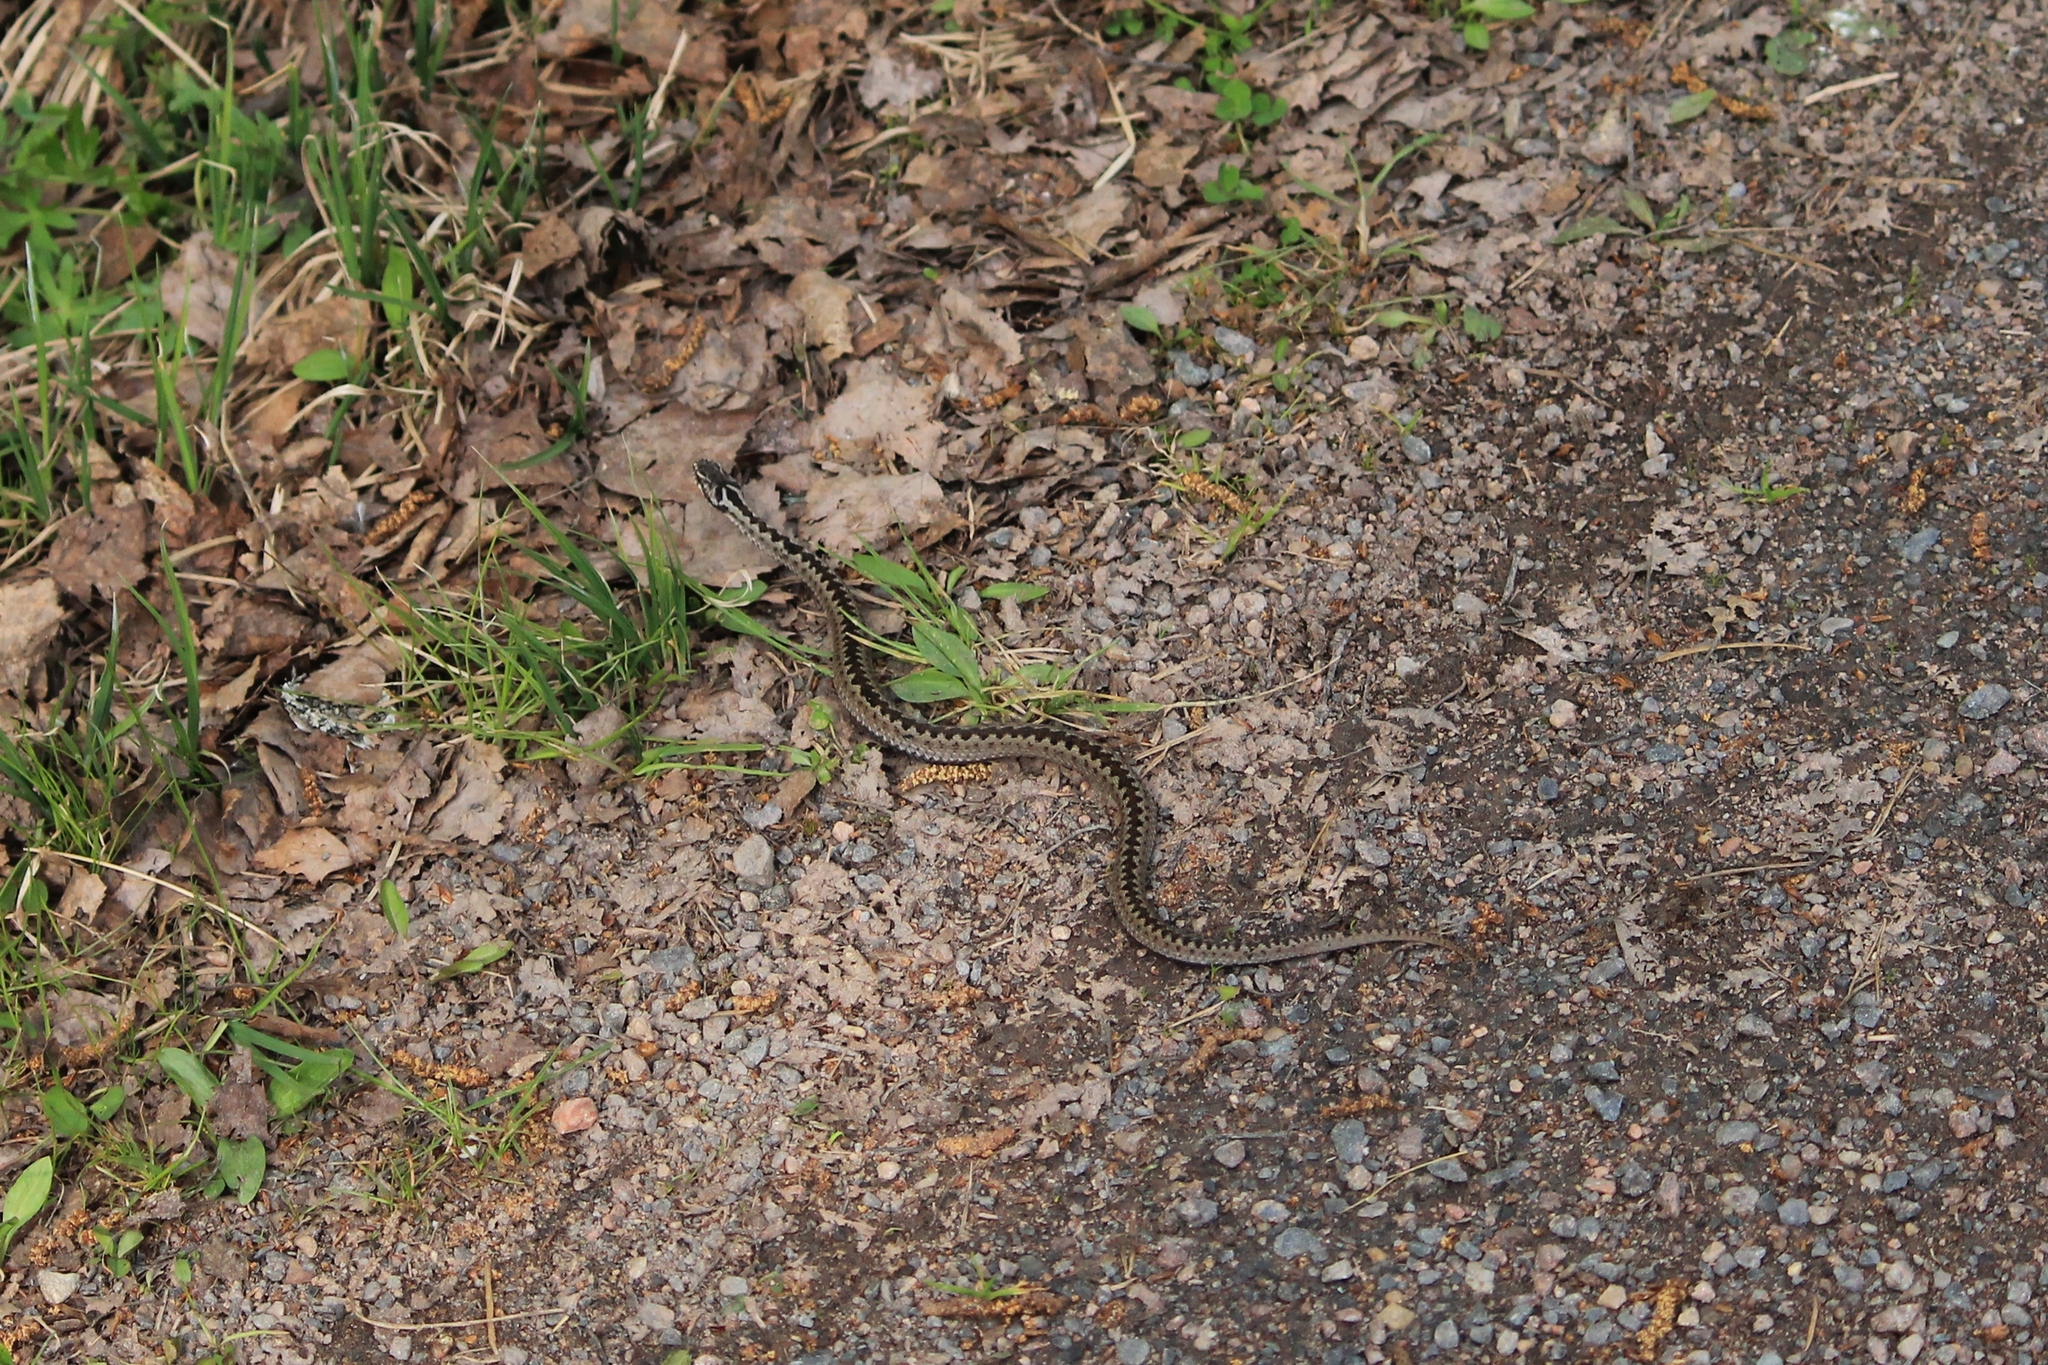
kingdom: Animalia
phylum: Chordata
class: Squamata
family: Viperidae
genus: Vipera
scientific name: Vipera berus
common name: Adder
